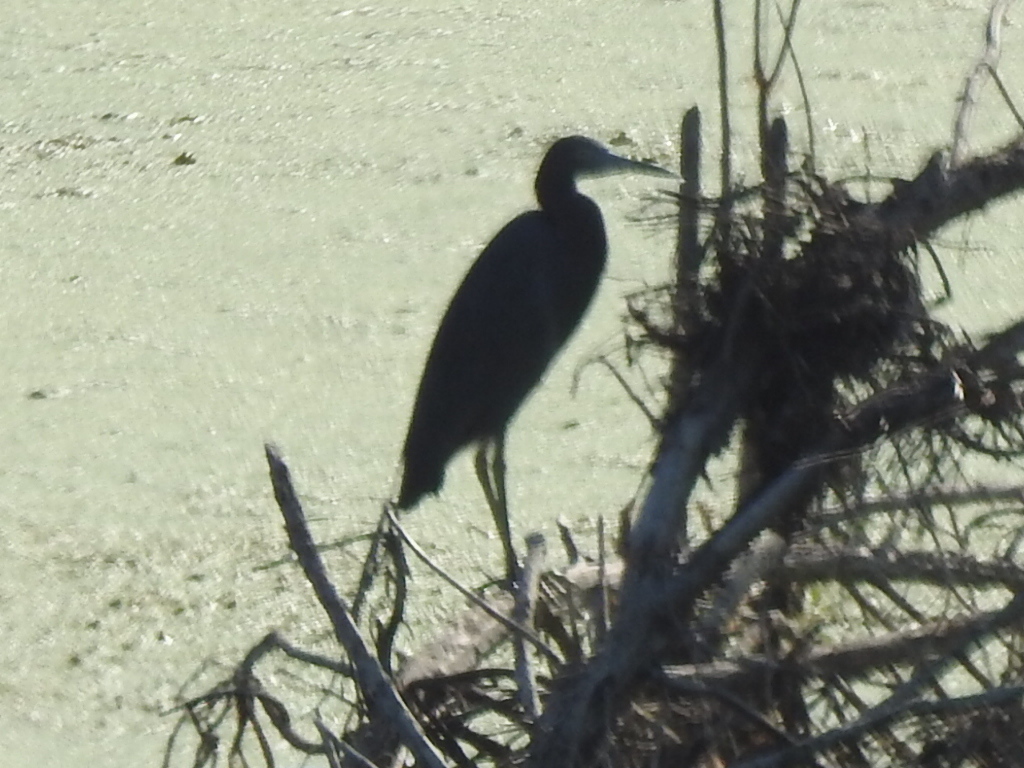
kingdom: Animalia
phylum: Chordata
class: Aves
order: Pelecaniformes
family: Ardeidae
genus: Egretta
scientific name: Egretta caerulea
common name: Little blue heron
